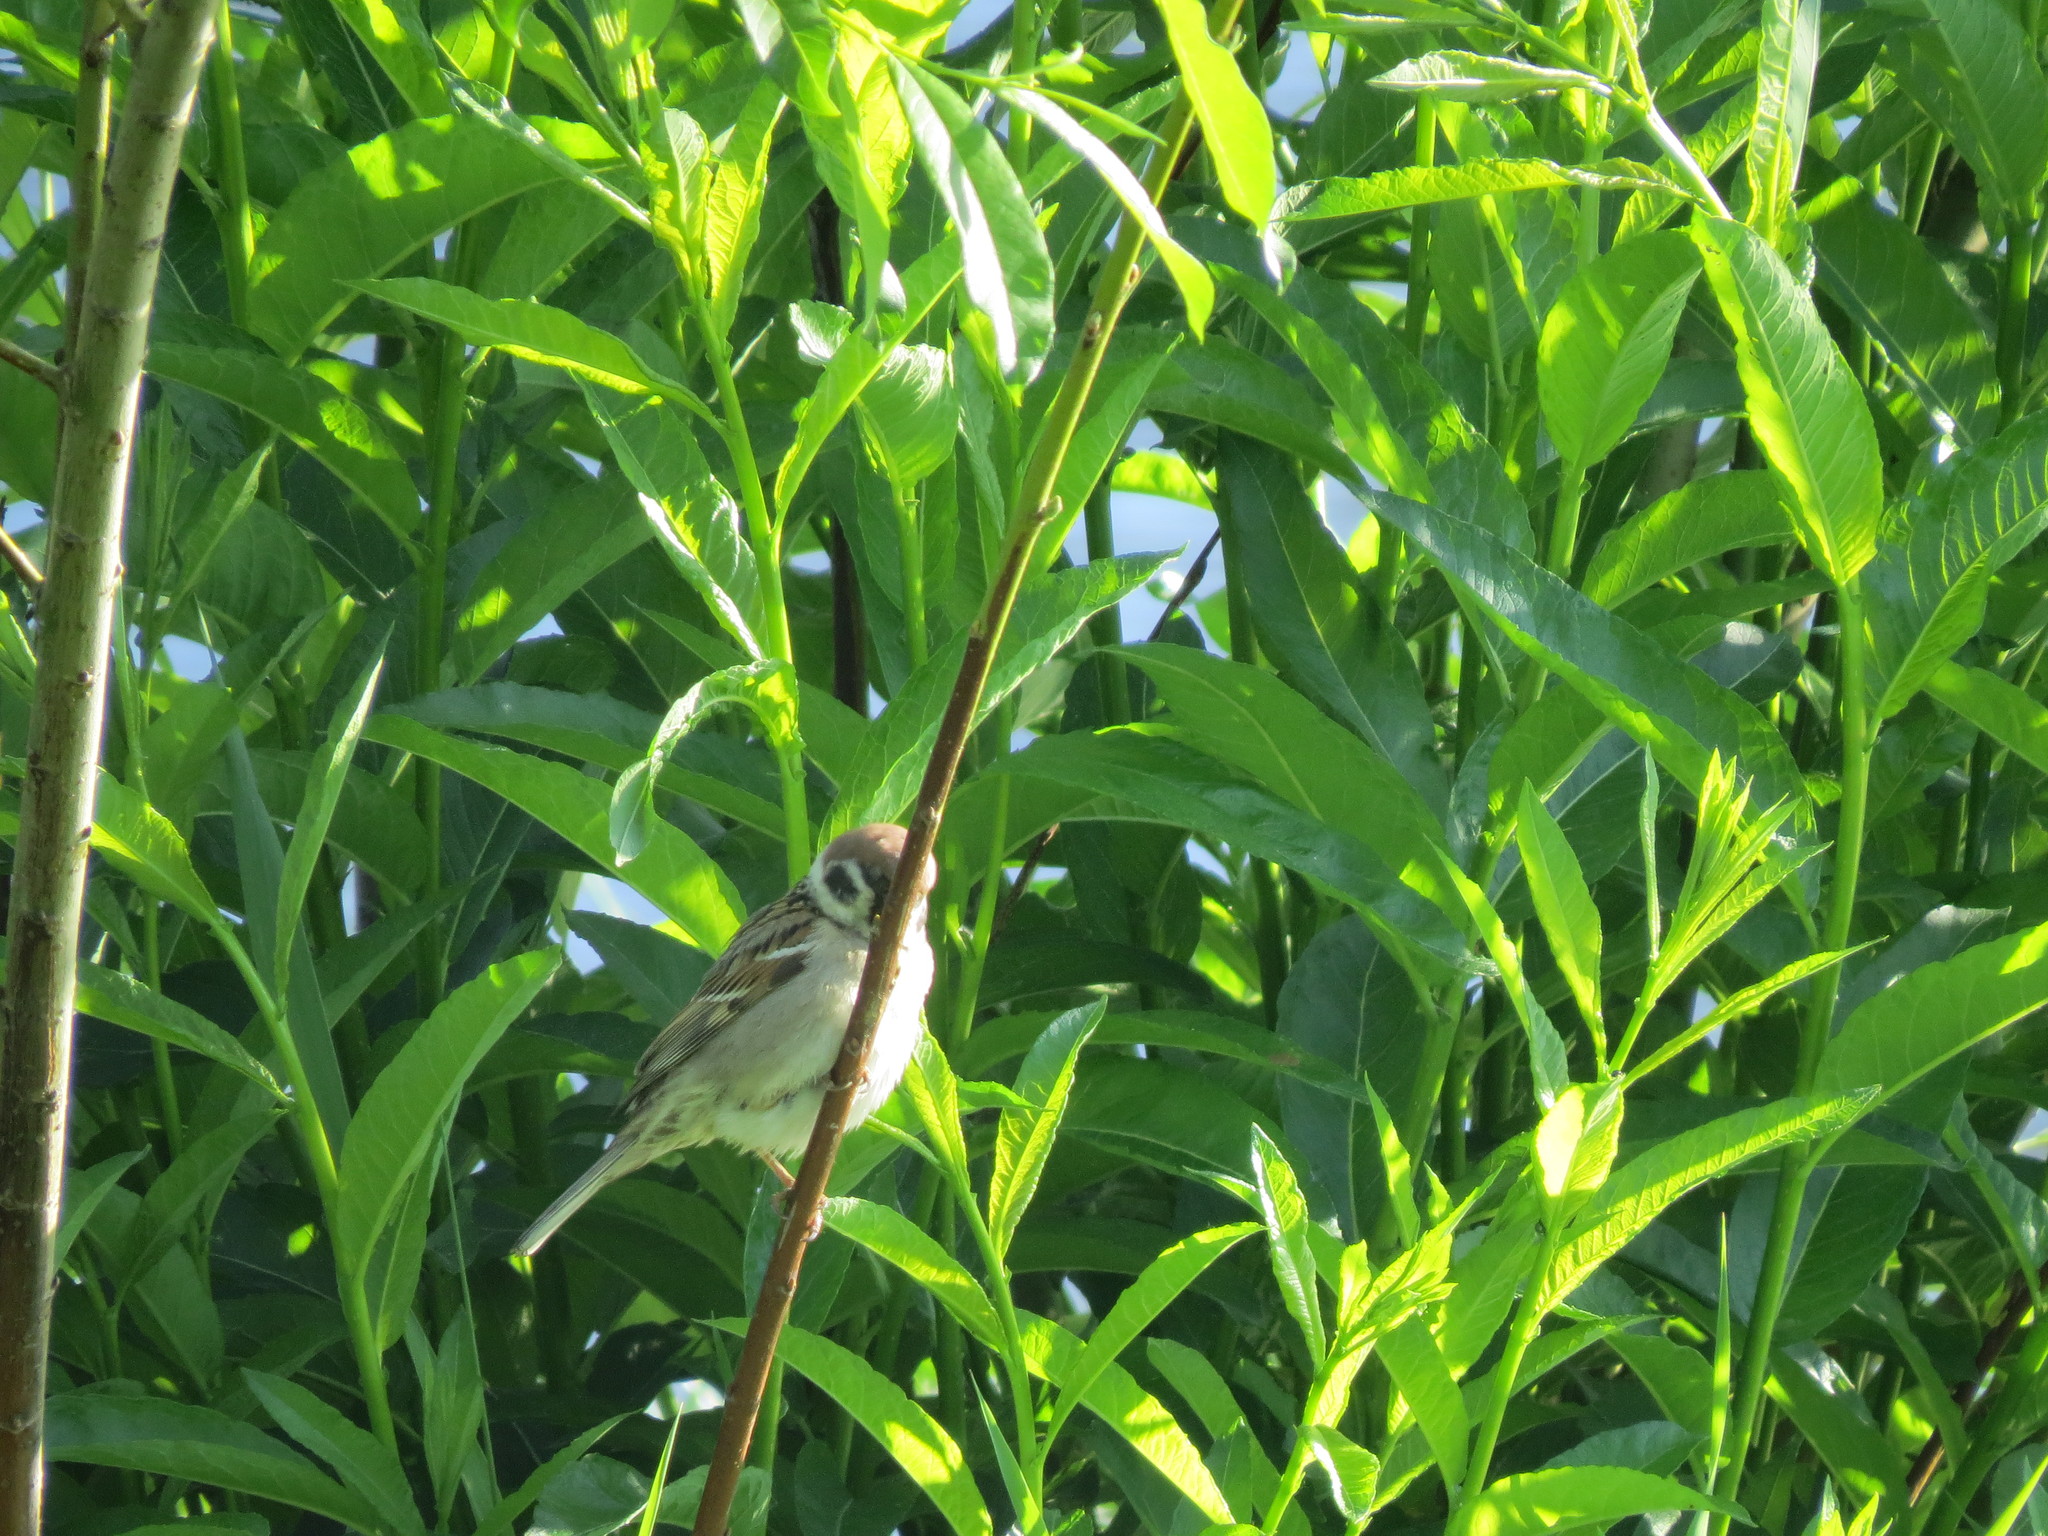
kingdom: Animalia
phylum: Chordata
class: Aves
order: Passeriformes
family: Passeridae
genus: Passer
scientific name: Passer montanus
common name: Eurasian tree sparrow
